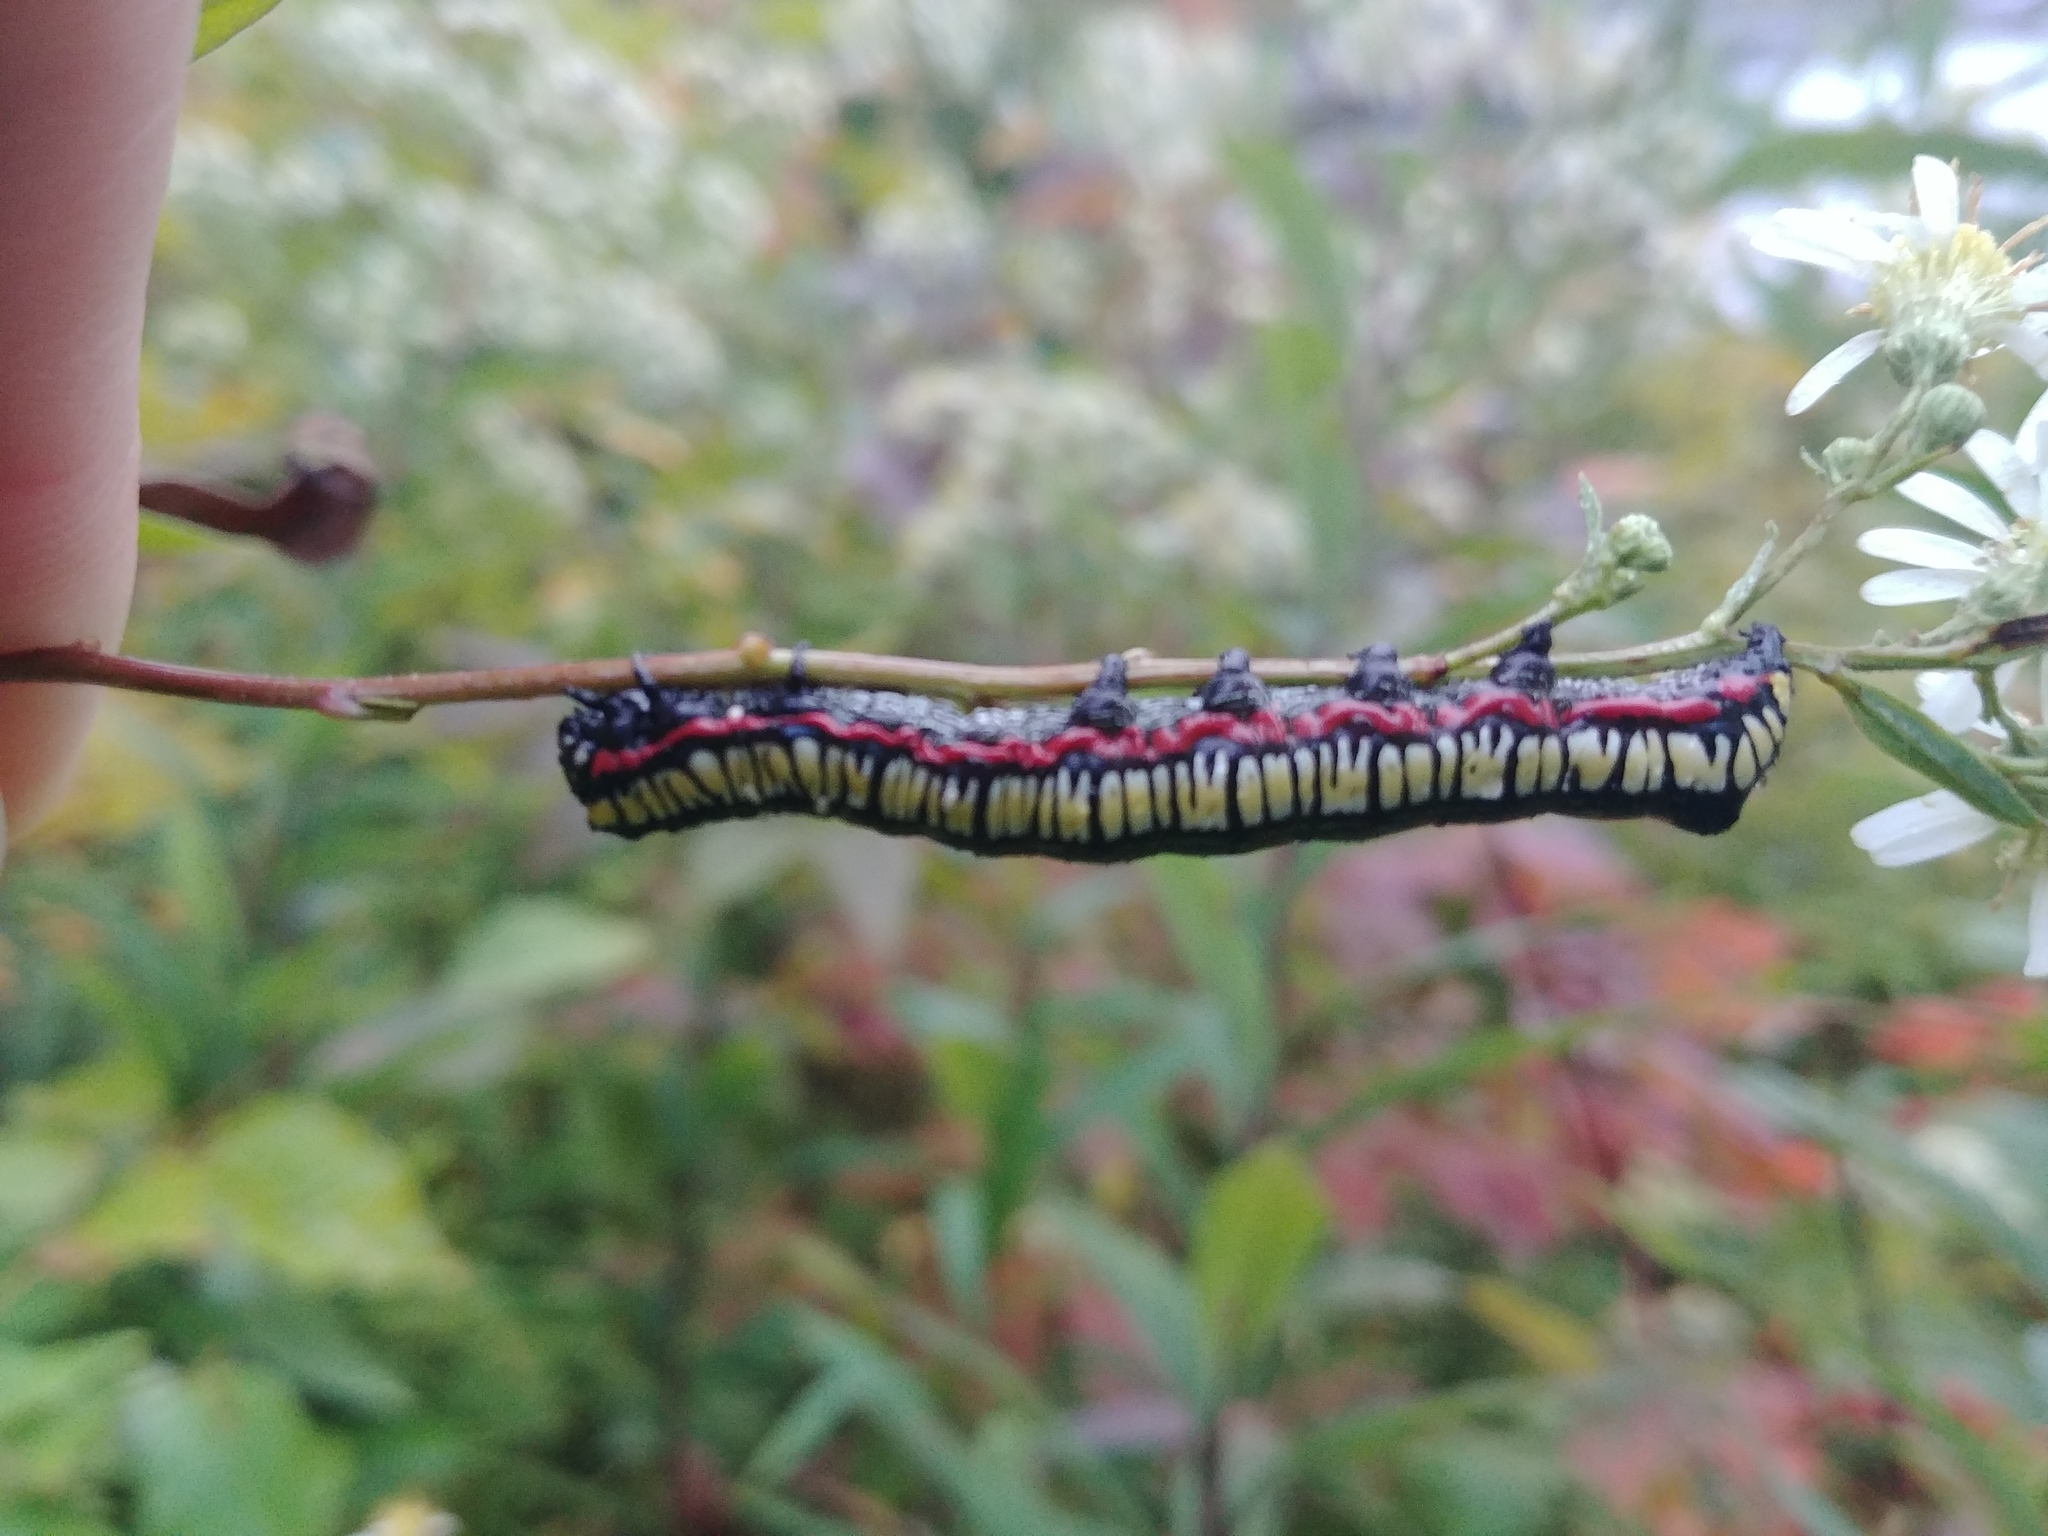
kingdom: Animalia
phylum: Arthropoda
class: Insecta
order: Lepidoptera
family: Noctuidae
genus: Cucullia
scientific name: Cucullia convexipennis
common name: Brown-hooded owlet
